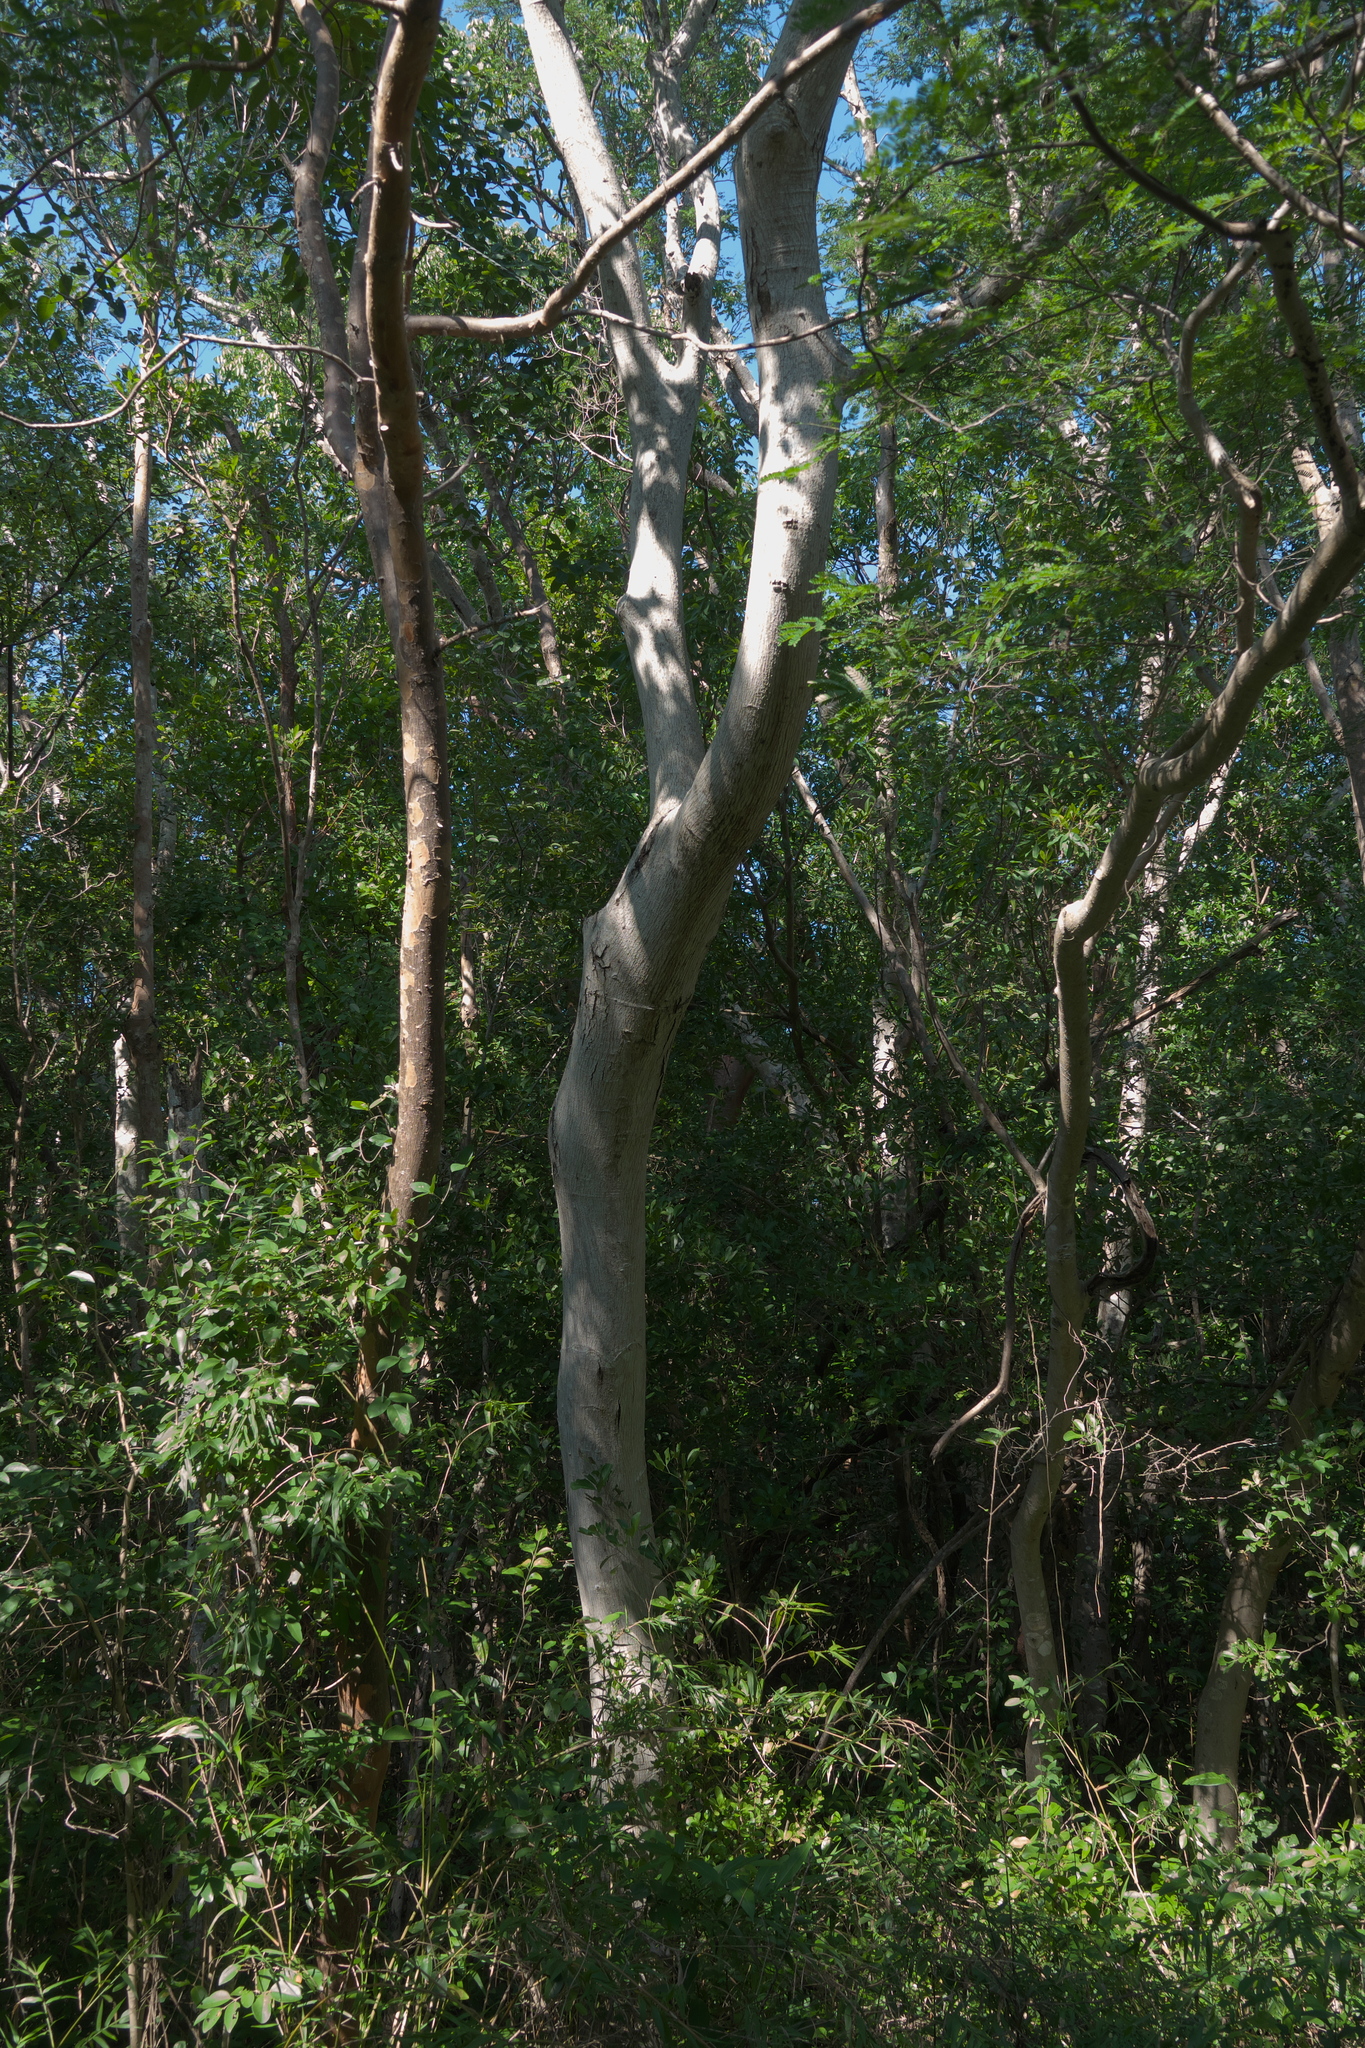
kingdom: Plantae
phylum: Tracheophyta
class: Magnoliopsida
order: Fabales
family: Fabaceae
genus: Lysiloma
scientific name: Lysiloma latisiliquum
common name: Wild tamarind
